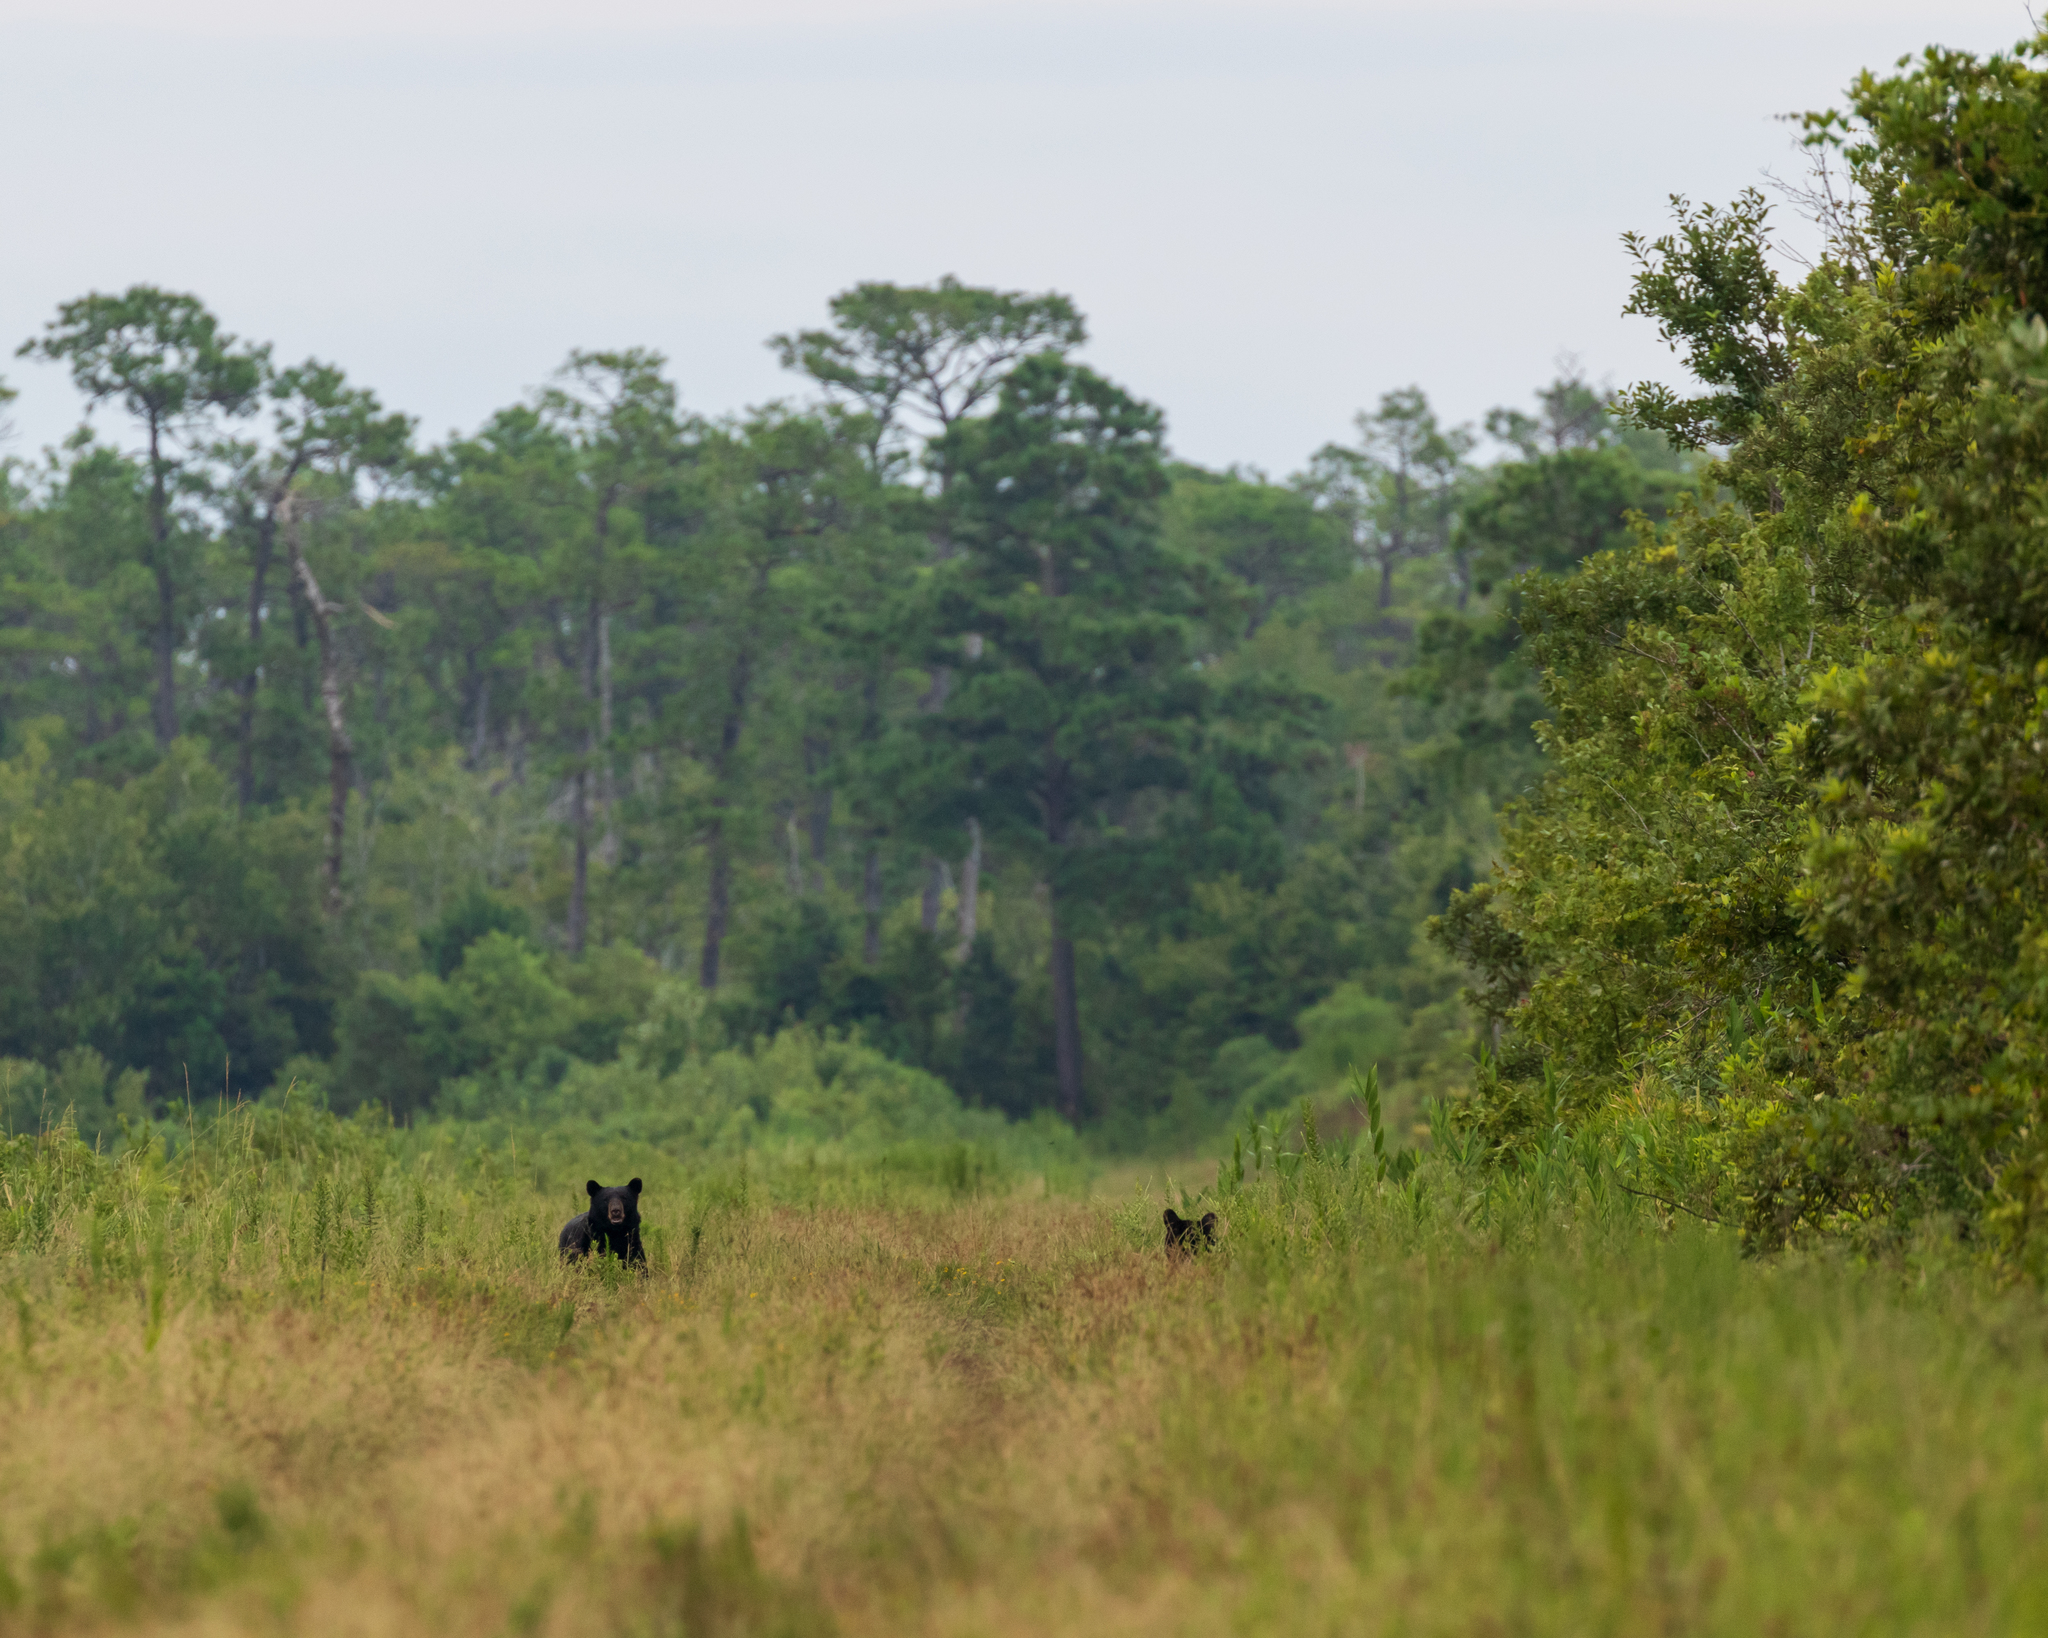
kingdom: Animalia
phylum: Chordata
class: Mammalia
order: Carnivora
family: Ursidae
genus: Ursus
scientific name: Ursus americanus
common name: American black bear
